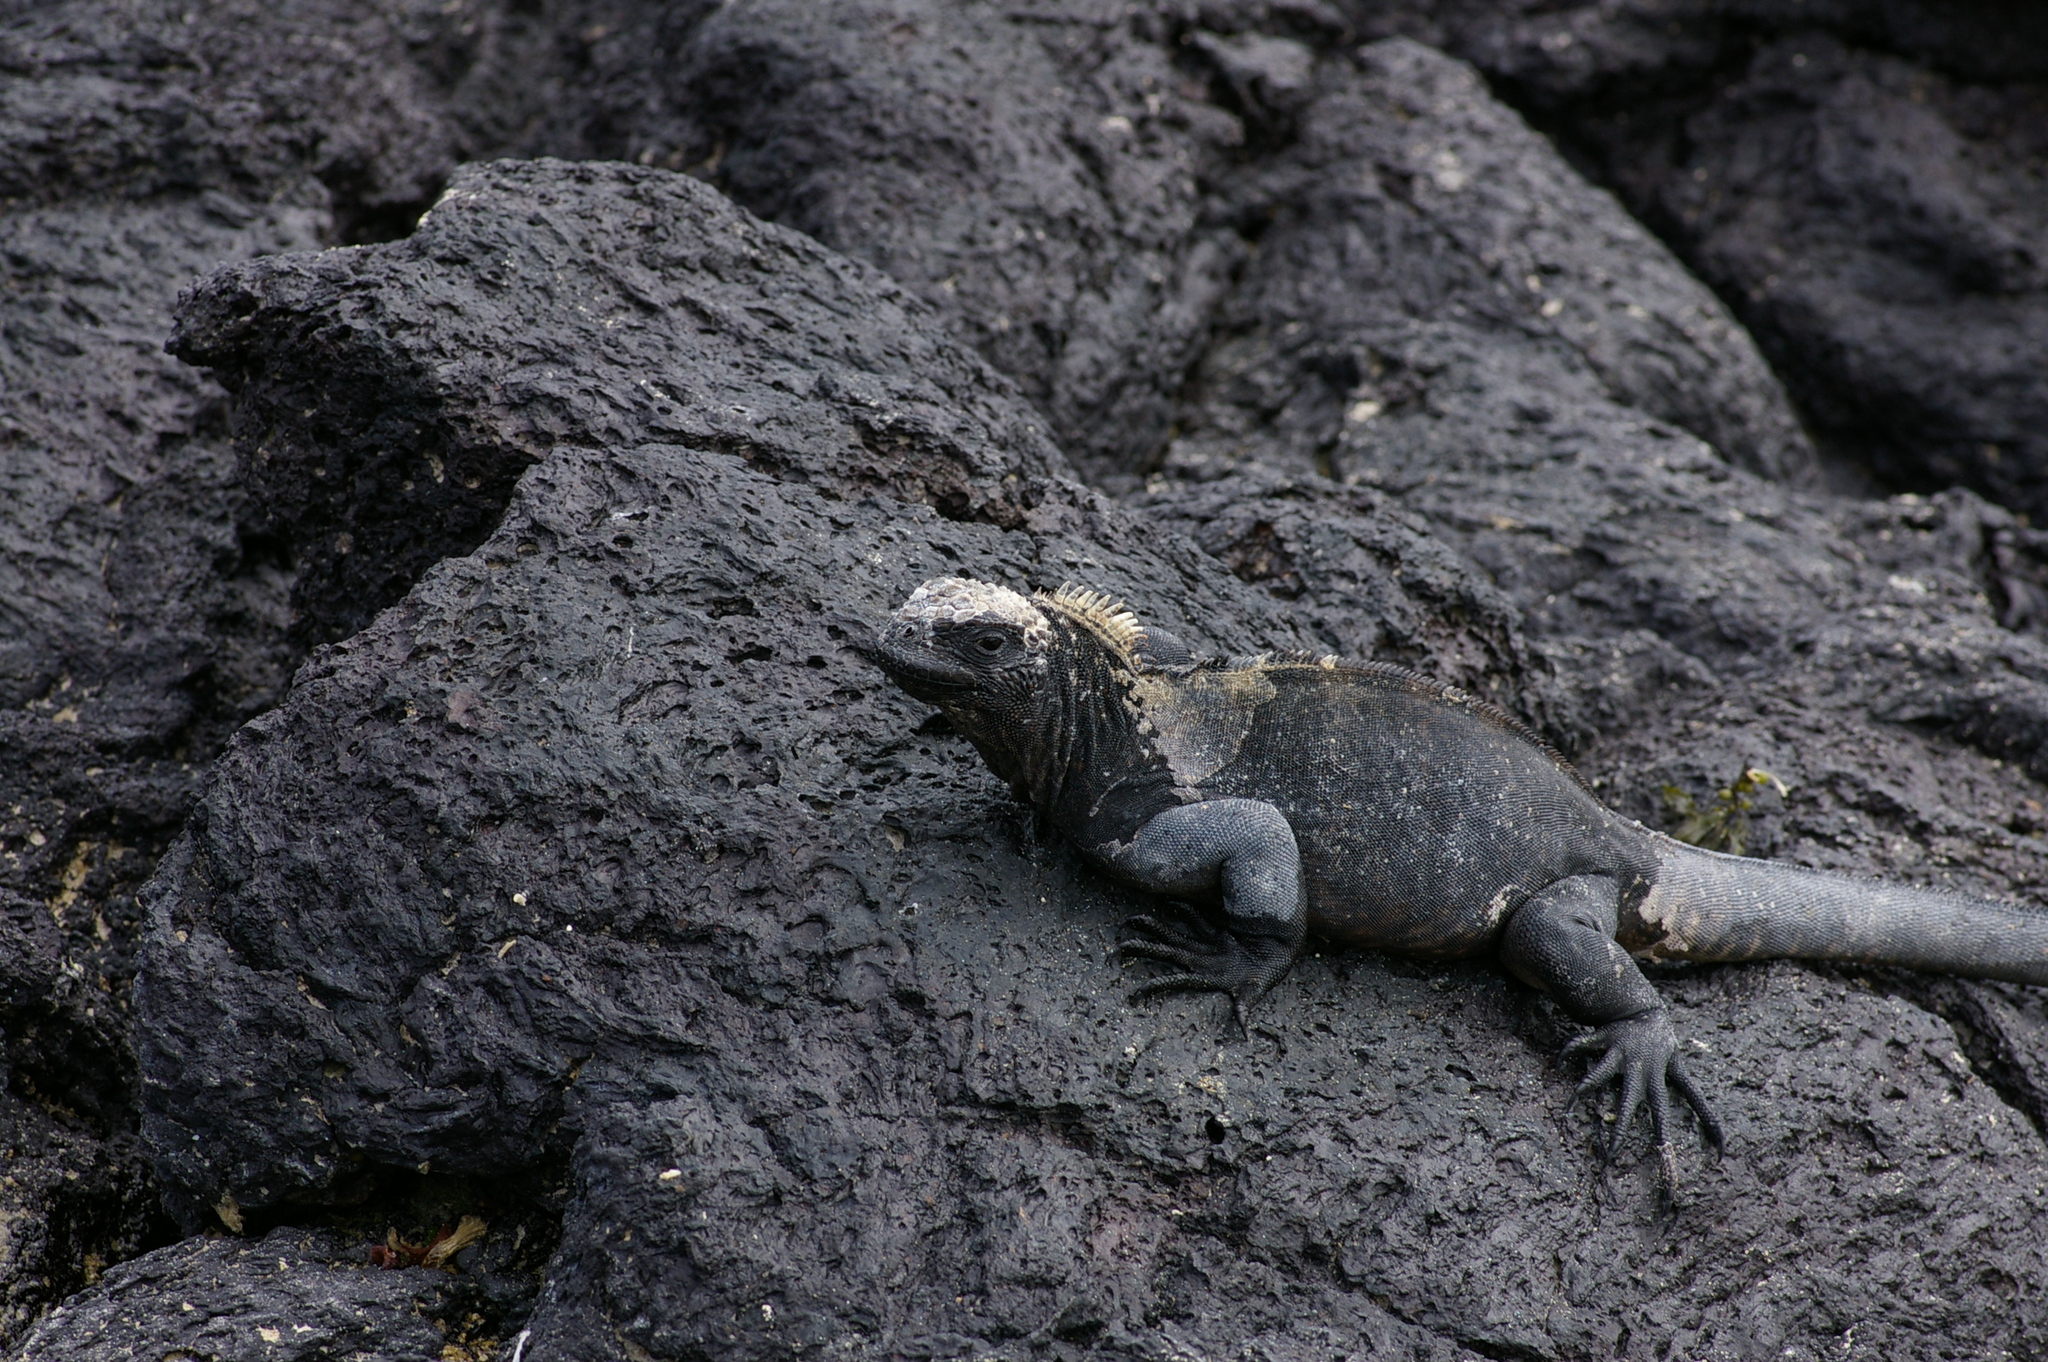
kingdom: Animalia
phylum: Chordata
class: Squamata
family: Iguanidae
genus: Amblyrhynchus
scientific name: Amblyrhynchus cristatus
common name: Marine iguana
